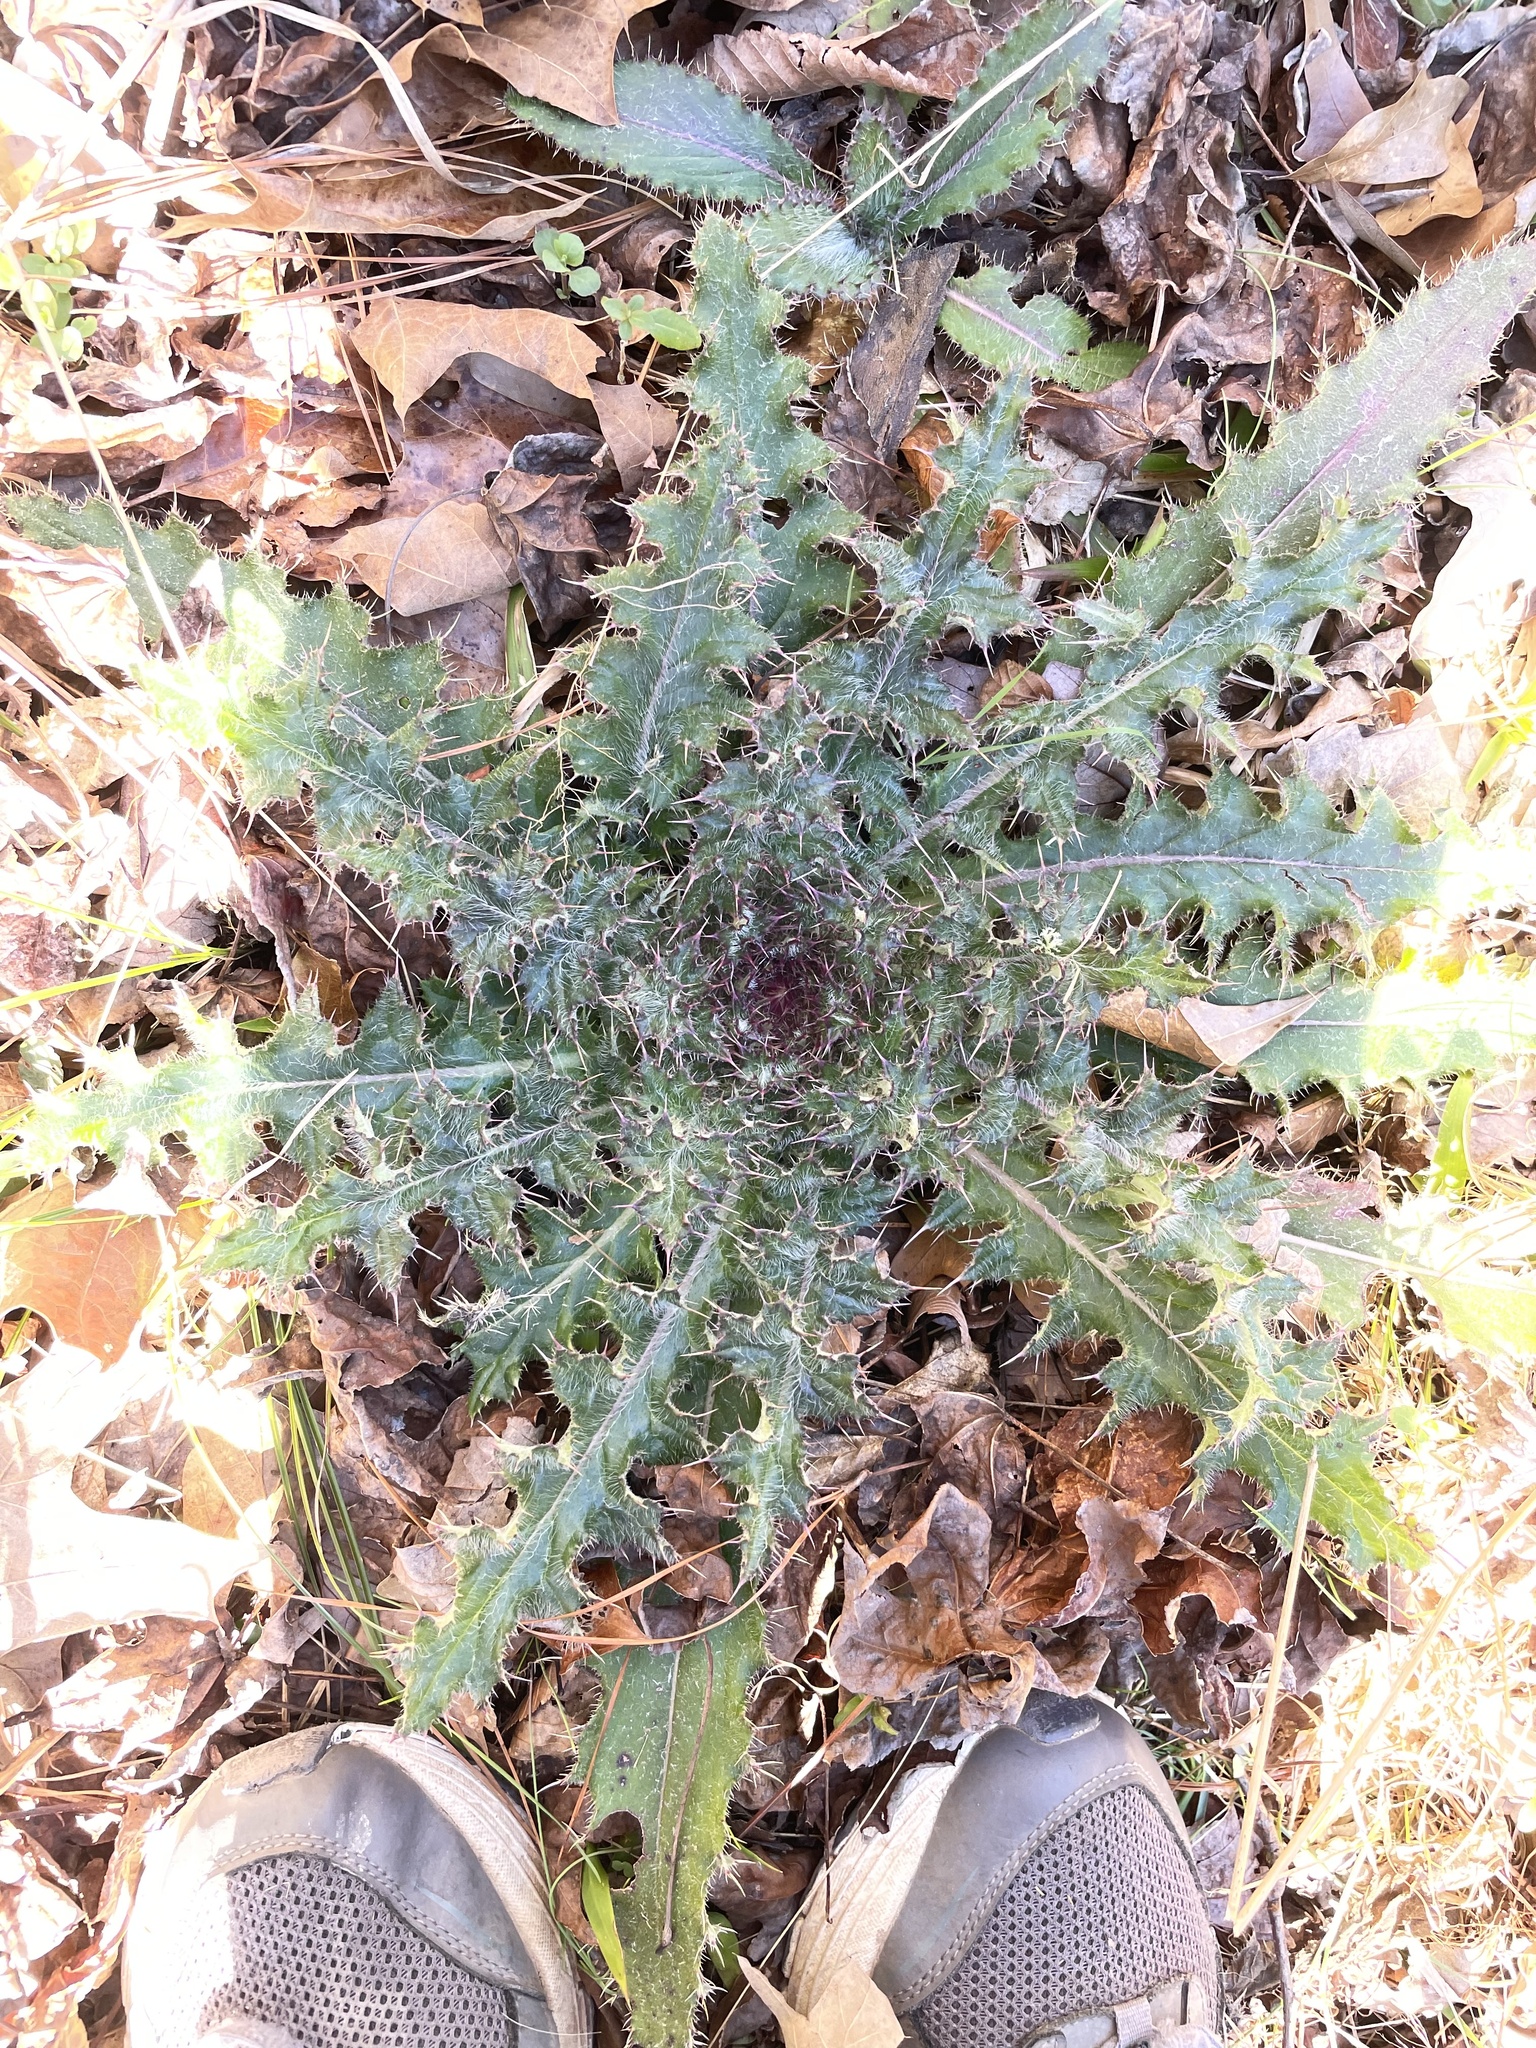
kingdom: Plantae
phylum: Tracheophyta
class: Magnoliopsida
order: Asterales
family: Asteraceae
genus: Cirsium
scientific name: Cirsium horridulum
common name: Bristly thistle
